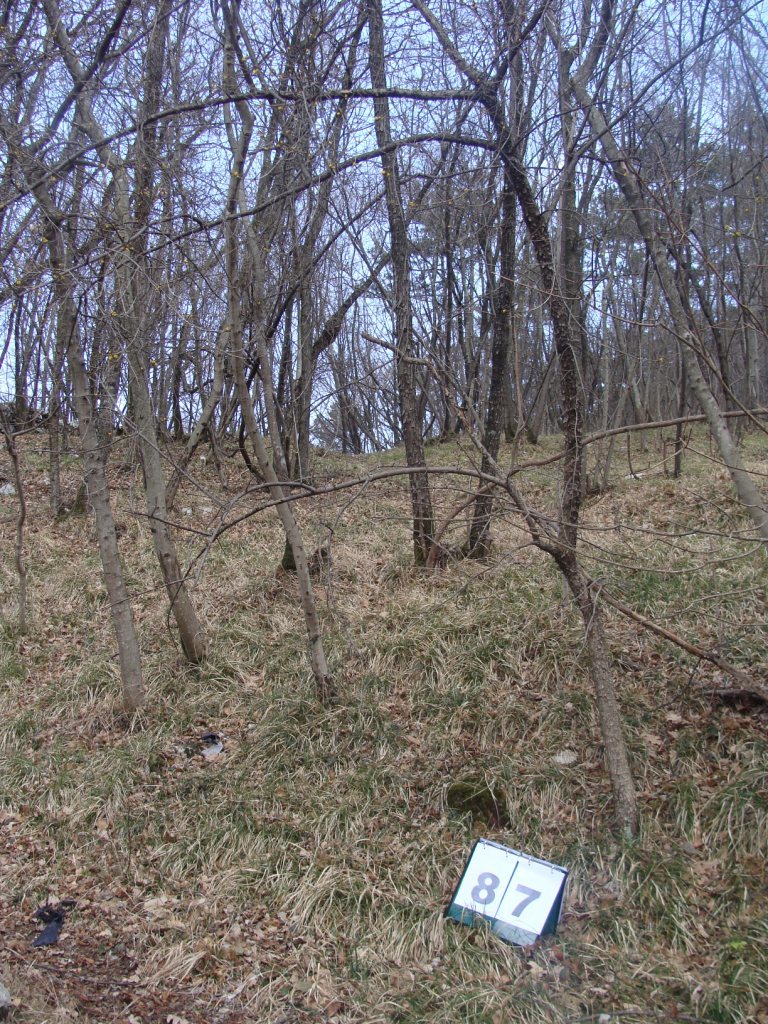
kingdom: Plantae
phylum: Tracheophyta
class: Magnoliopsida
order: Cornales
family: Cornaceae
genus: Cornus
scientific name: Cornus mas
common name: Cornelian-cherry
